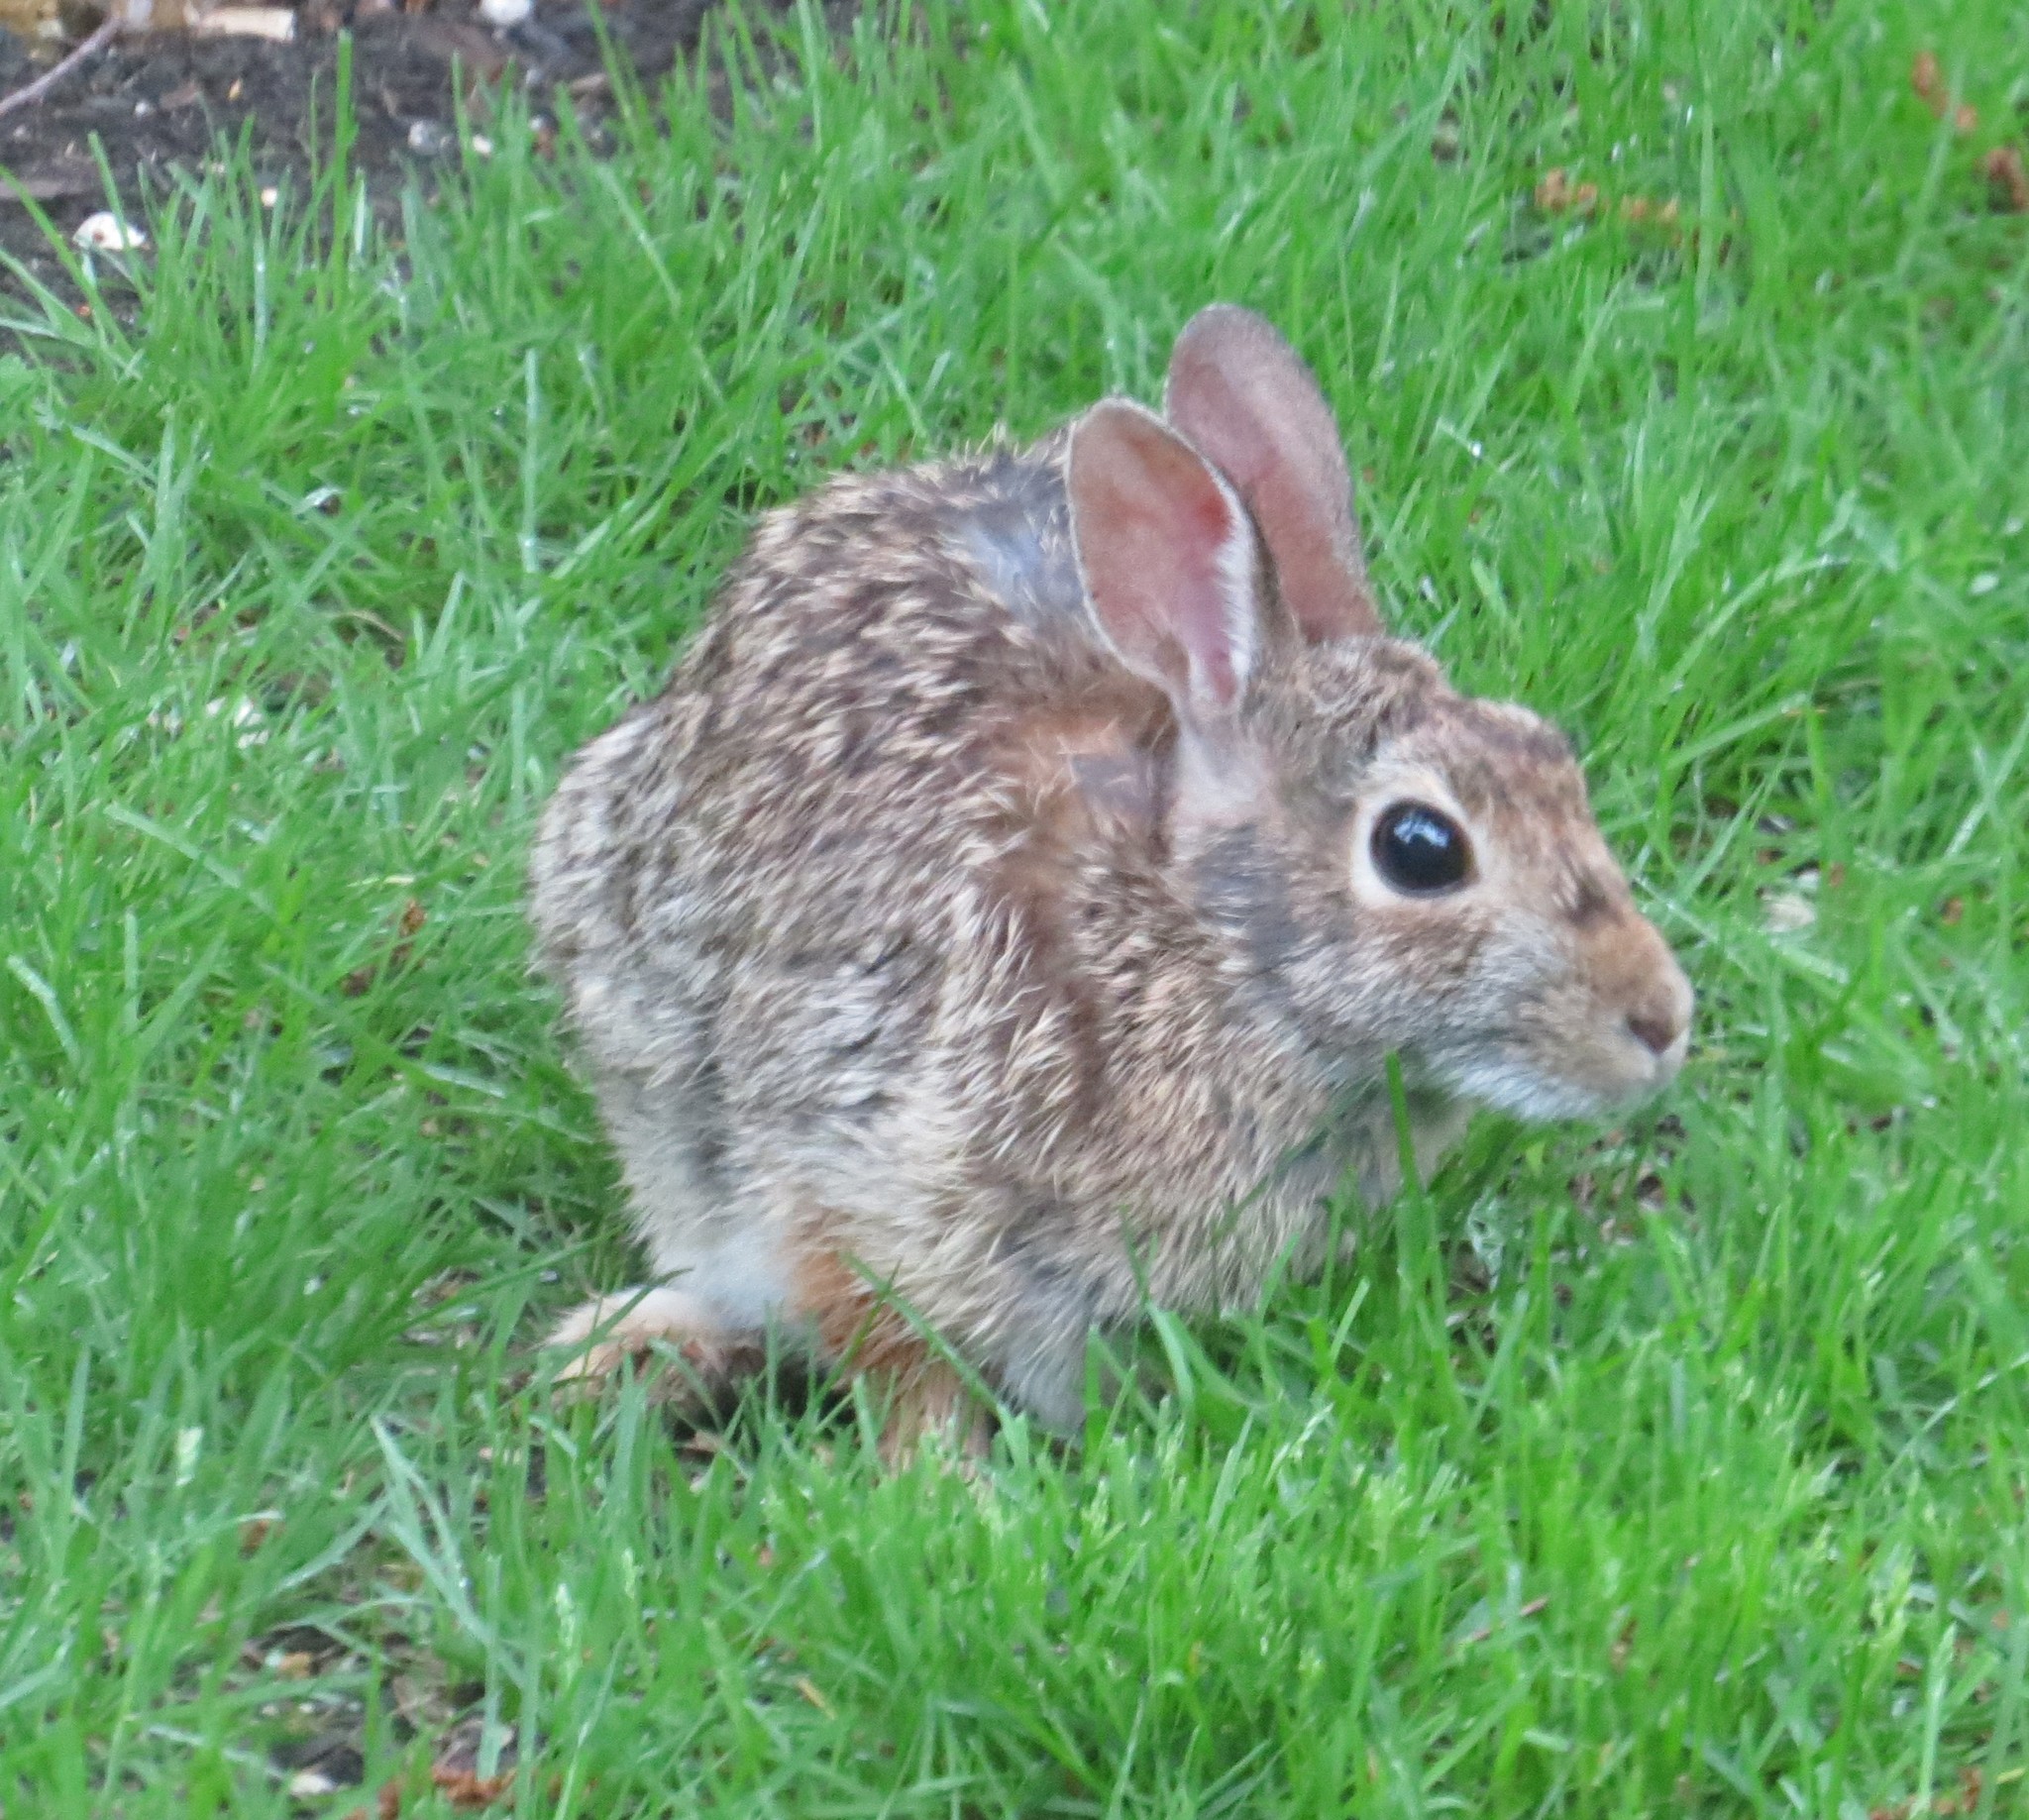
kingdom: Animalia
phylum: Chordata
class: Mammalia
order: Lagomorpha
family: Leporidae
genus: Sylvilagus
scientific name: Sylvilagus floridanus
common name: Eastern cottontail
